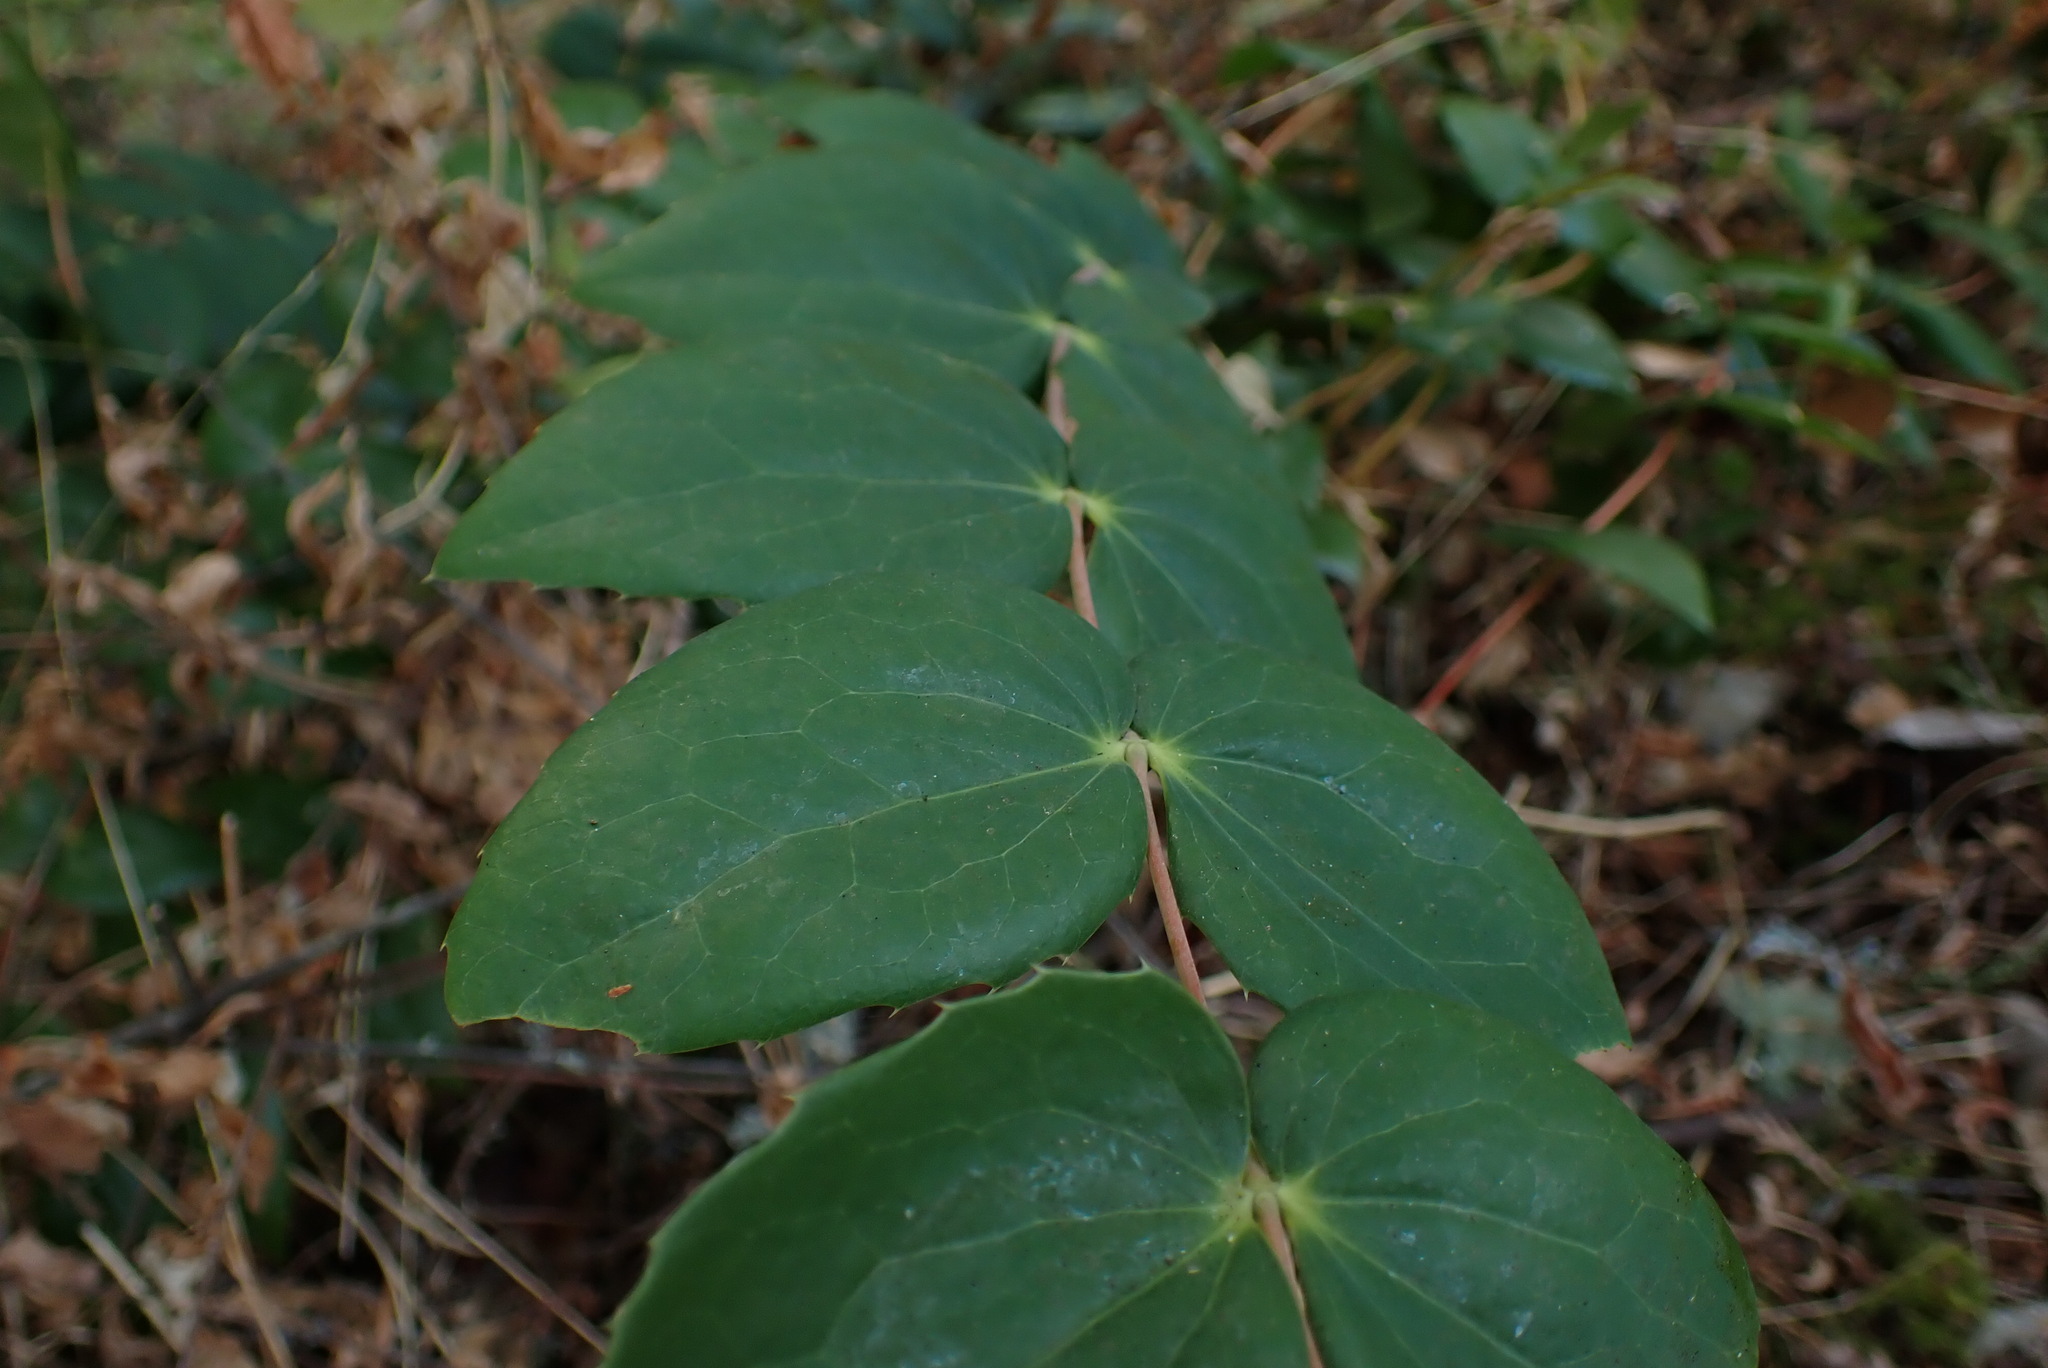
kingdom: Plantae
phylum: Tracheophyta
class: Magnoliopsida
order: Ranunculales
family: Berberidaceae
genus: Mahonia
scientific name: Mahonia nervosa
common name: Cascade oregon-grape
